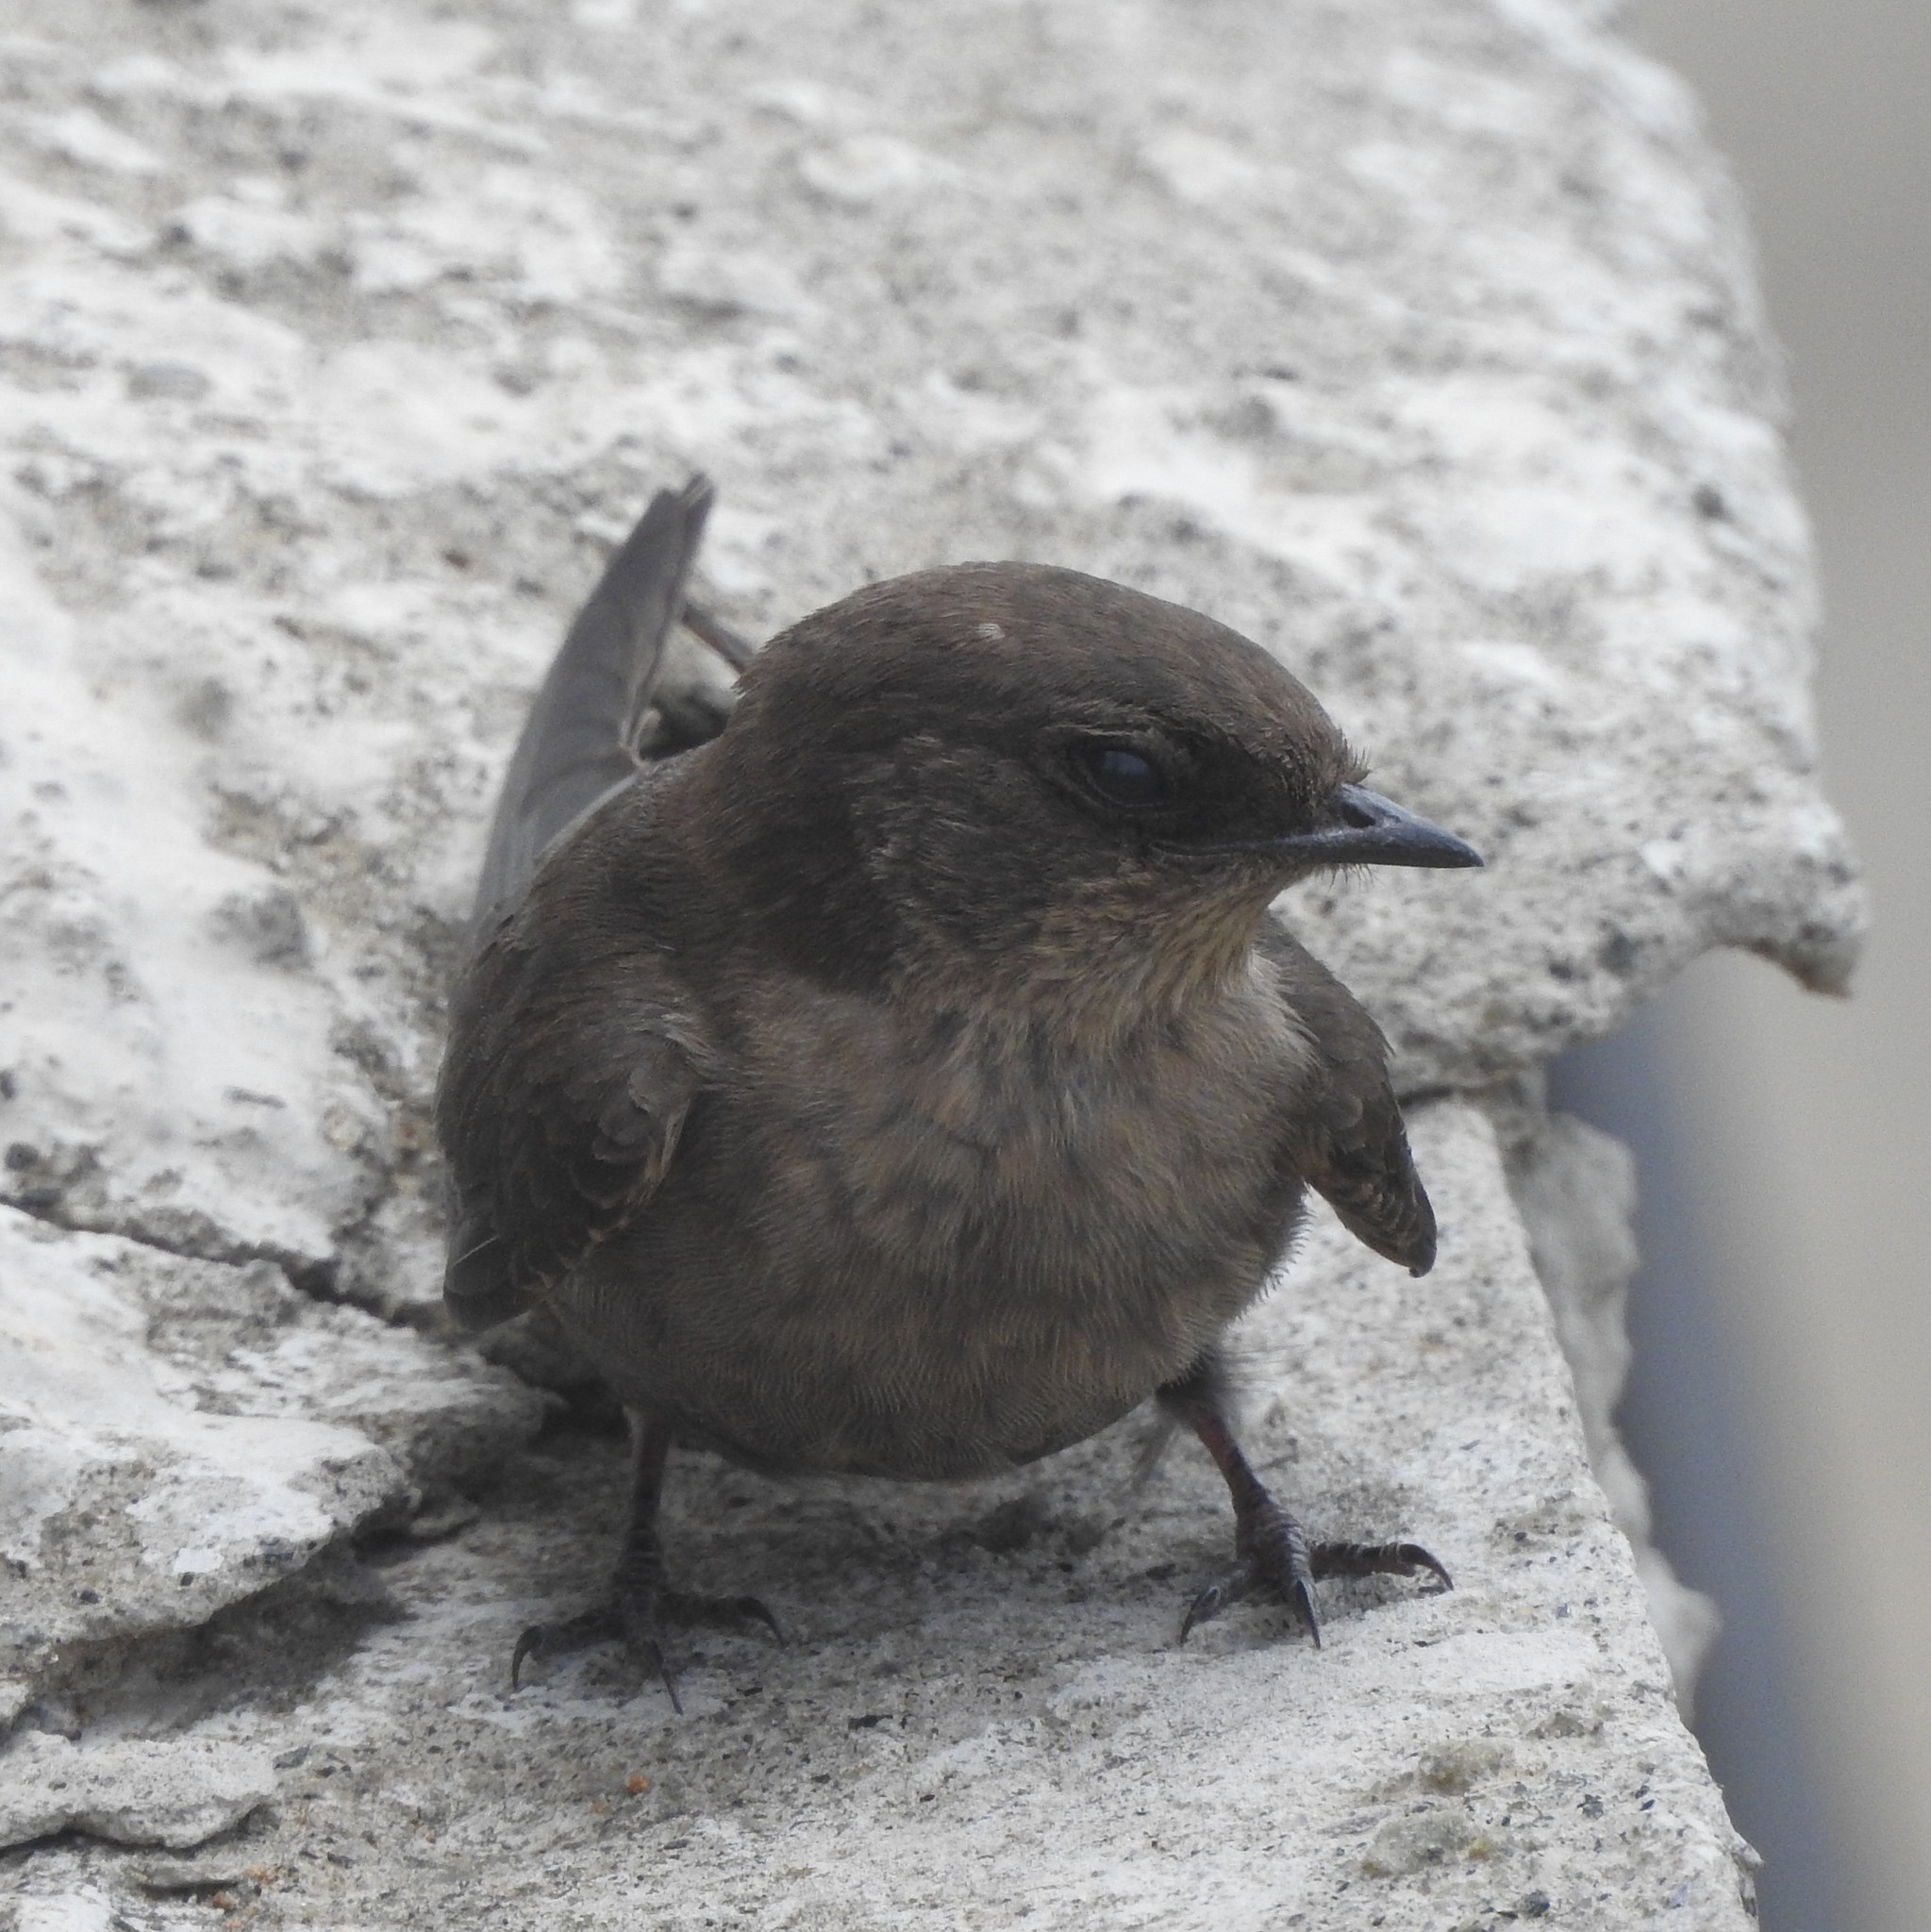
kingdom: Animalia
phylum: Chordata
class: Aves
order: Passeriformes
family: Hirundinidae
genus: Ptyonoprogne
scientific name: Ptyonoprogne concolor
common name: Dusky crag-martin
